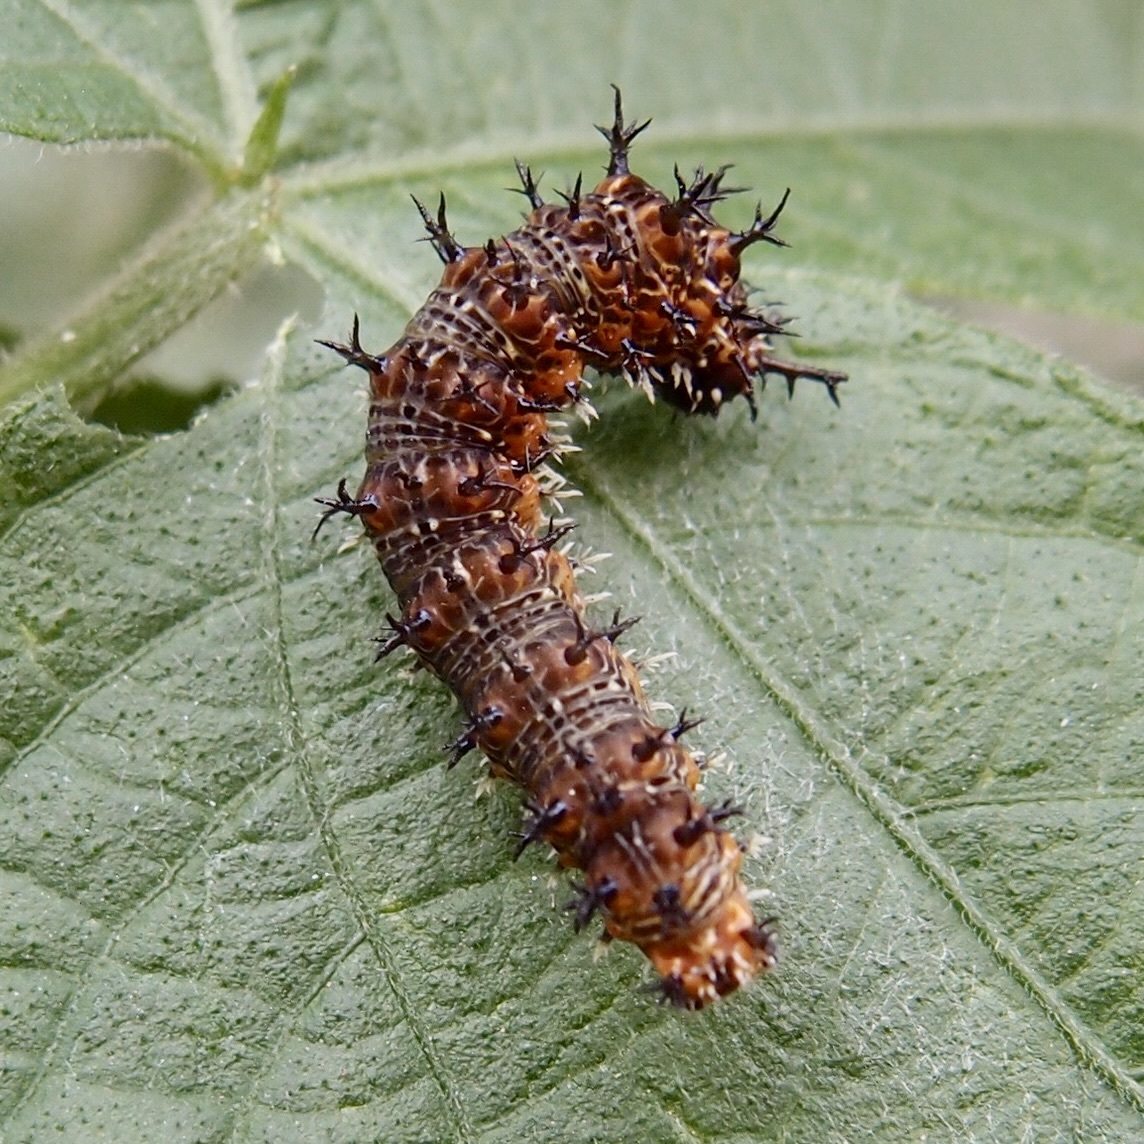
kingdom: Animalia
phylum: Arthropoda
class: Insecta
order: Lepidoptera
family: Nymphalidae
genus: Hamadryas
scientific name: Hamadryas februa
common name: Gray cracker
